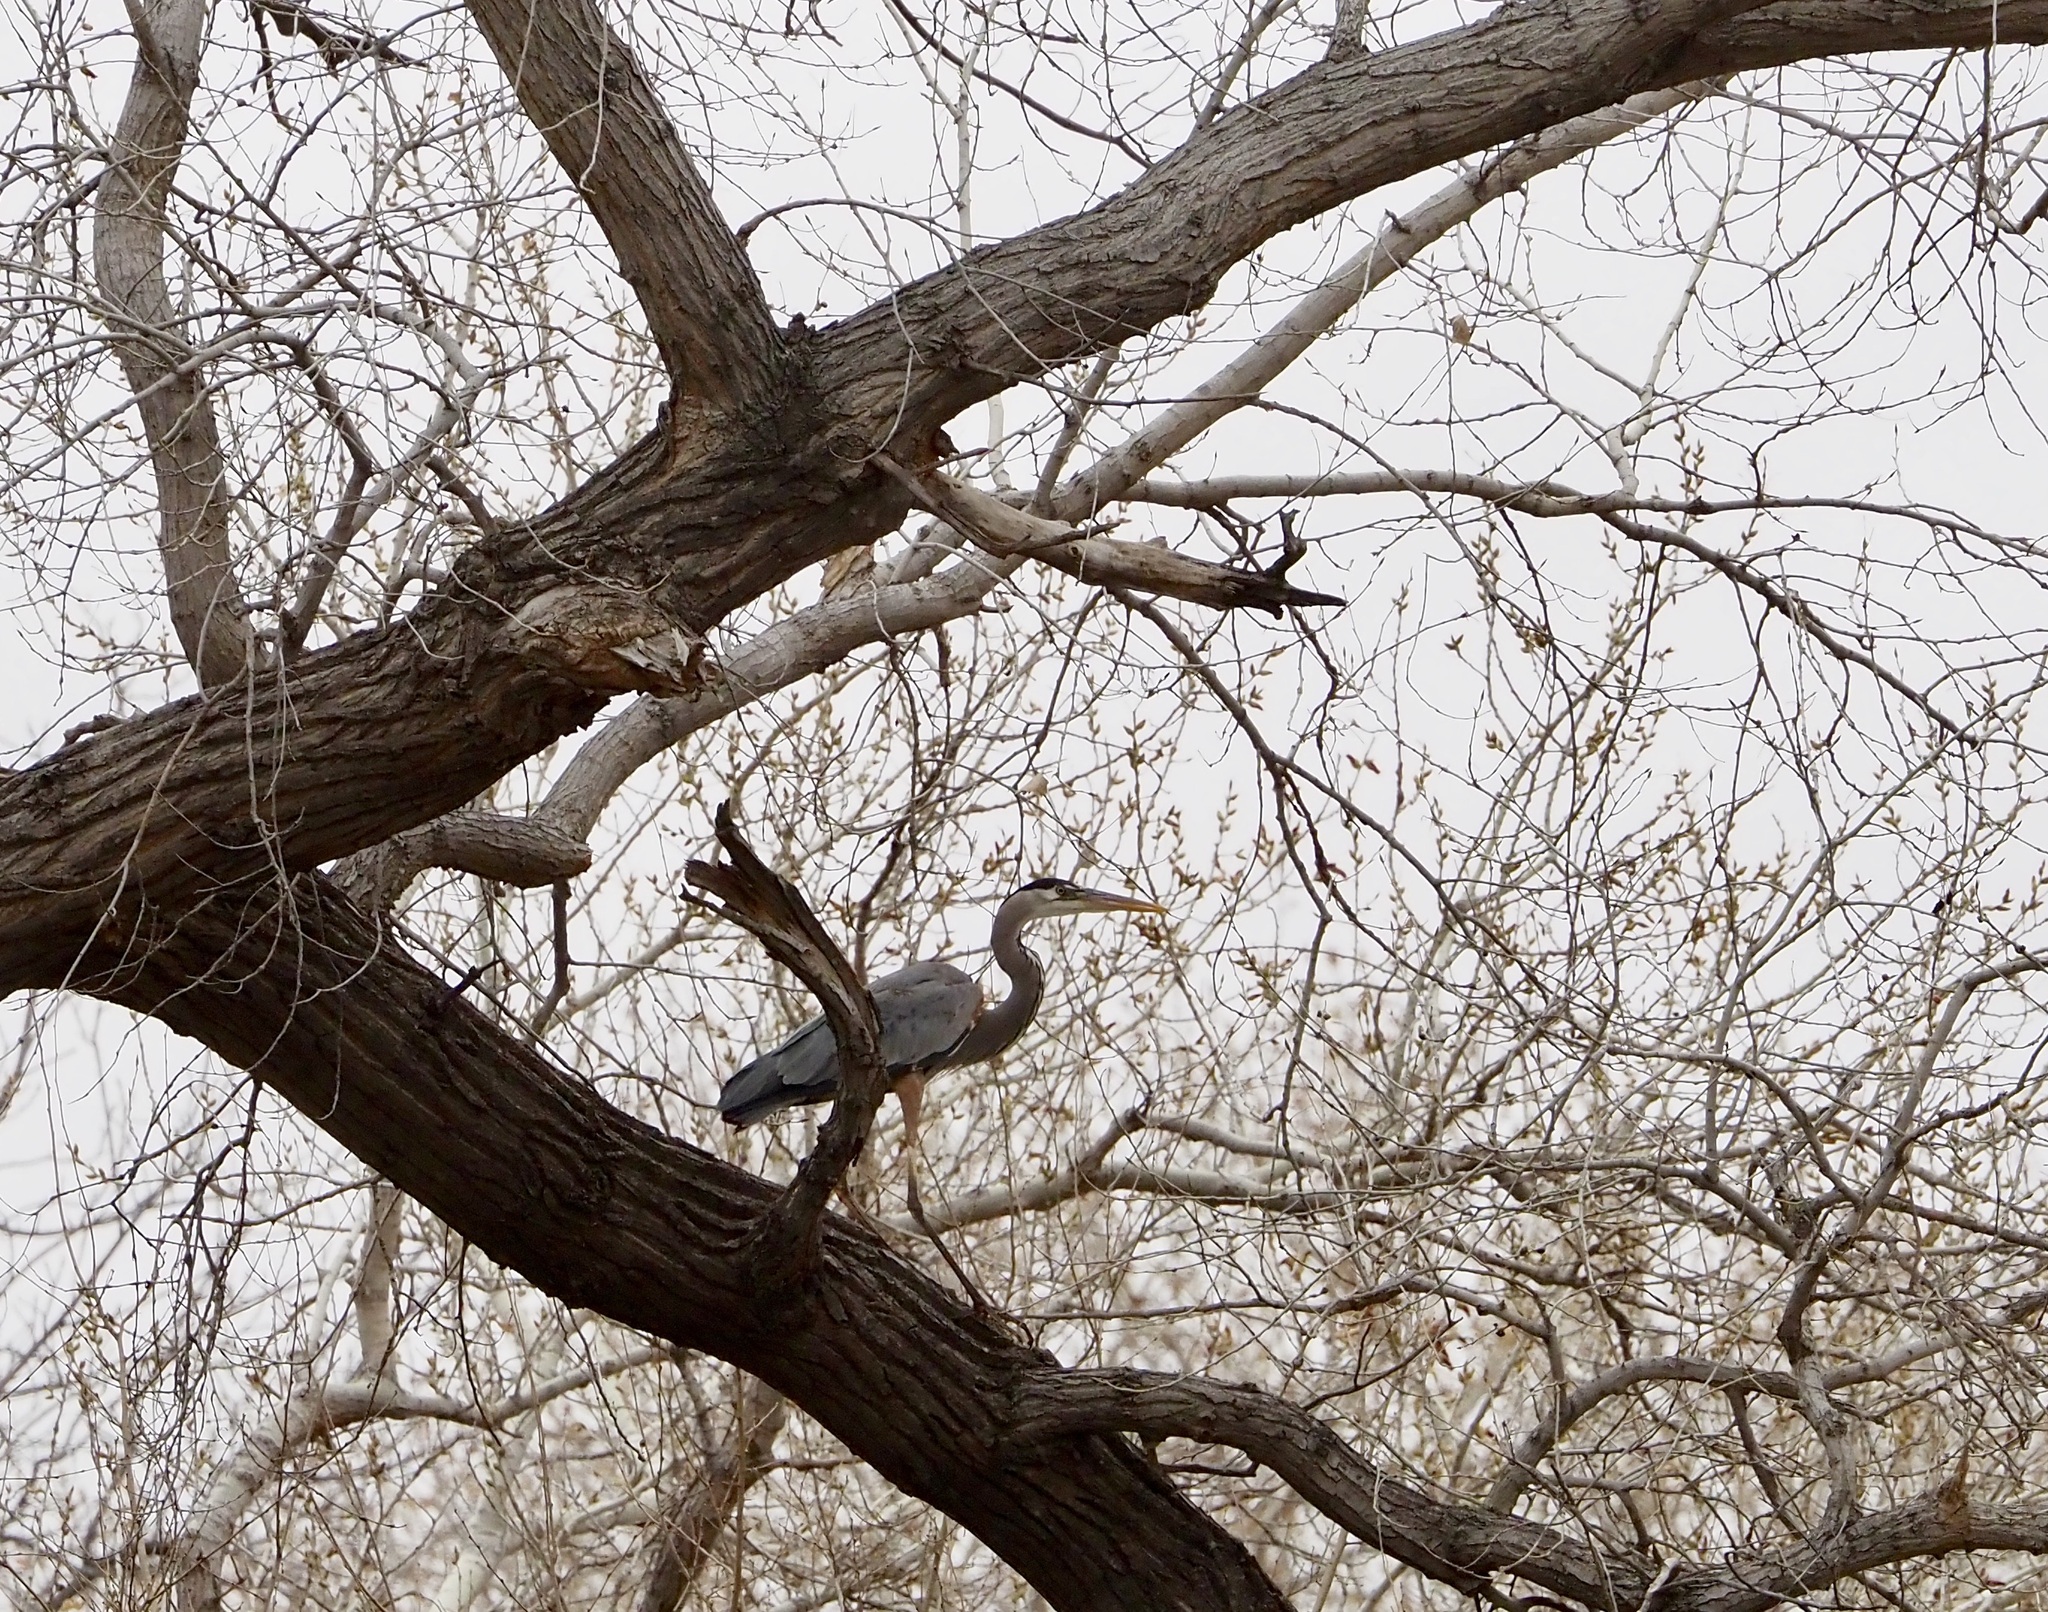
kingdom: Animalia
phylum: Chordata
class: Aves
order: Pelecaniformes
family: Ardeidae
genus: Ardea
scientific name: Ardea herodias
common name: Great blue heron
